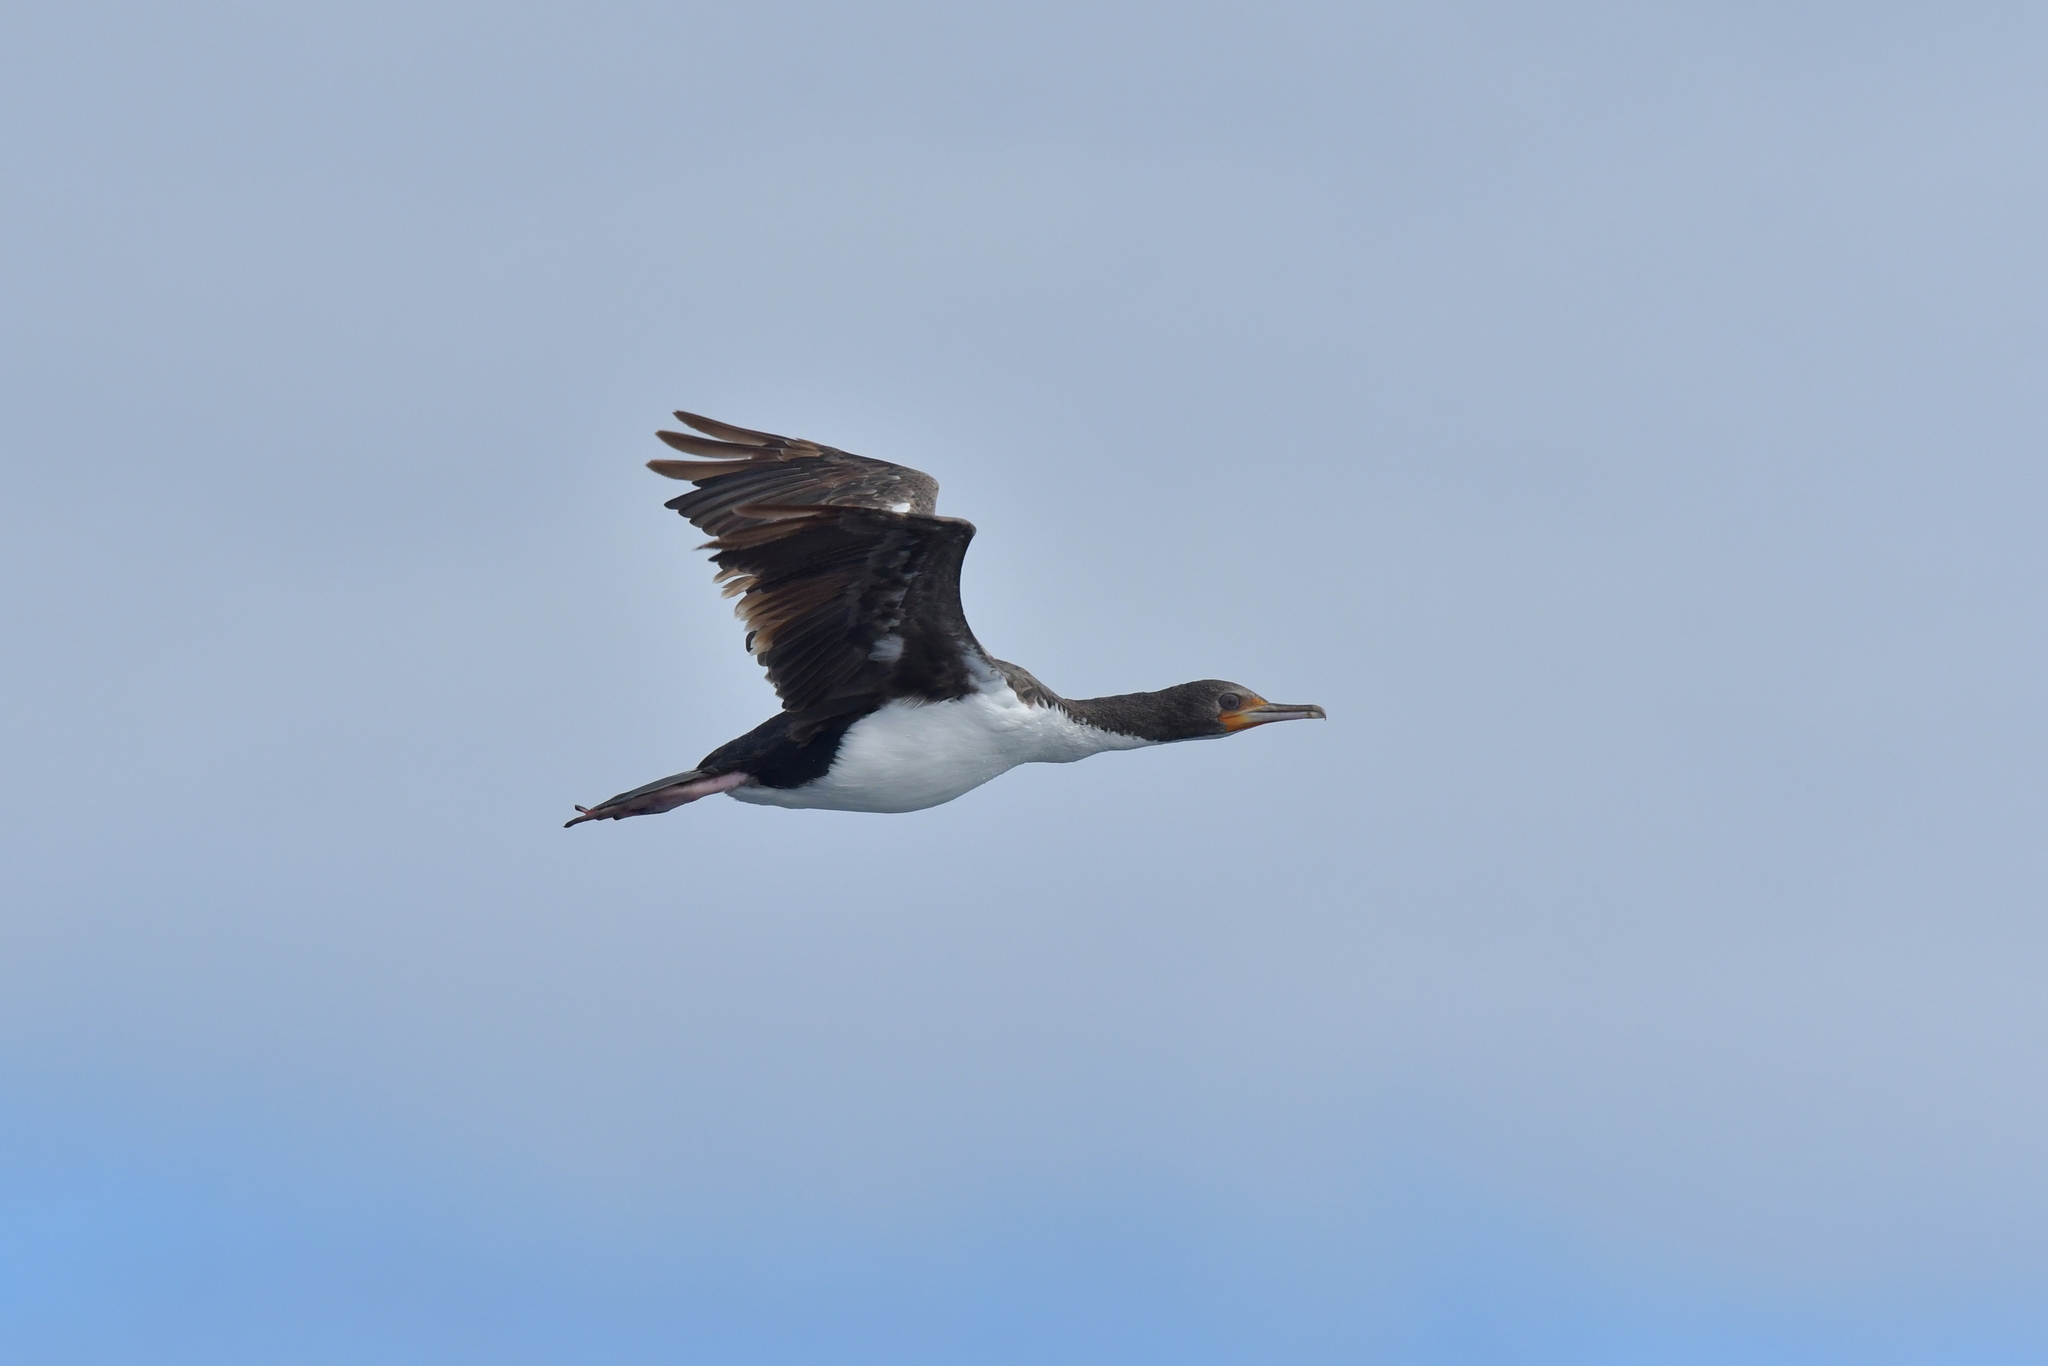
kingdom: Animalia
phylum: Chordata
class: Aves
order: Suliformes
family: Phalacrocoracidae
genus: Leucocarbo
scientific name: Leucocarbo onslowi
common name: Chatham shag
